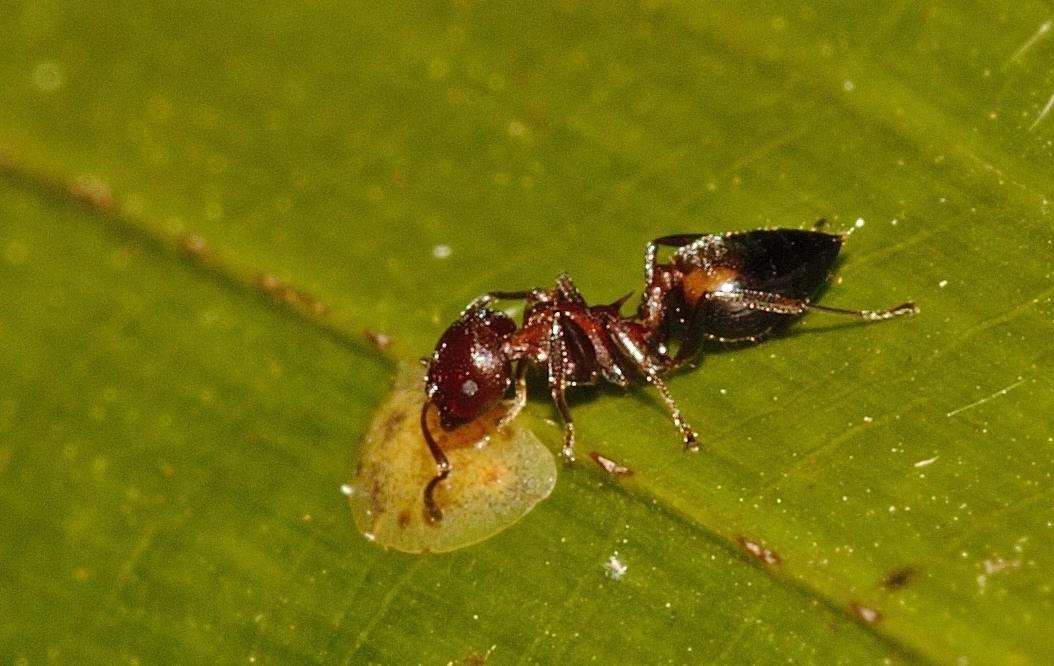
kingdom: Animalia
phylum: Arthropoda
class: Insecta
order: Hymenoptera
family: Formicidae
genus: Crematogaster
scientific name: Crematogaster castanea
